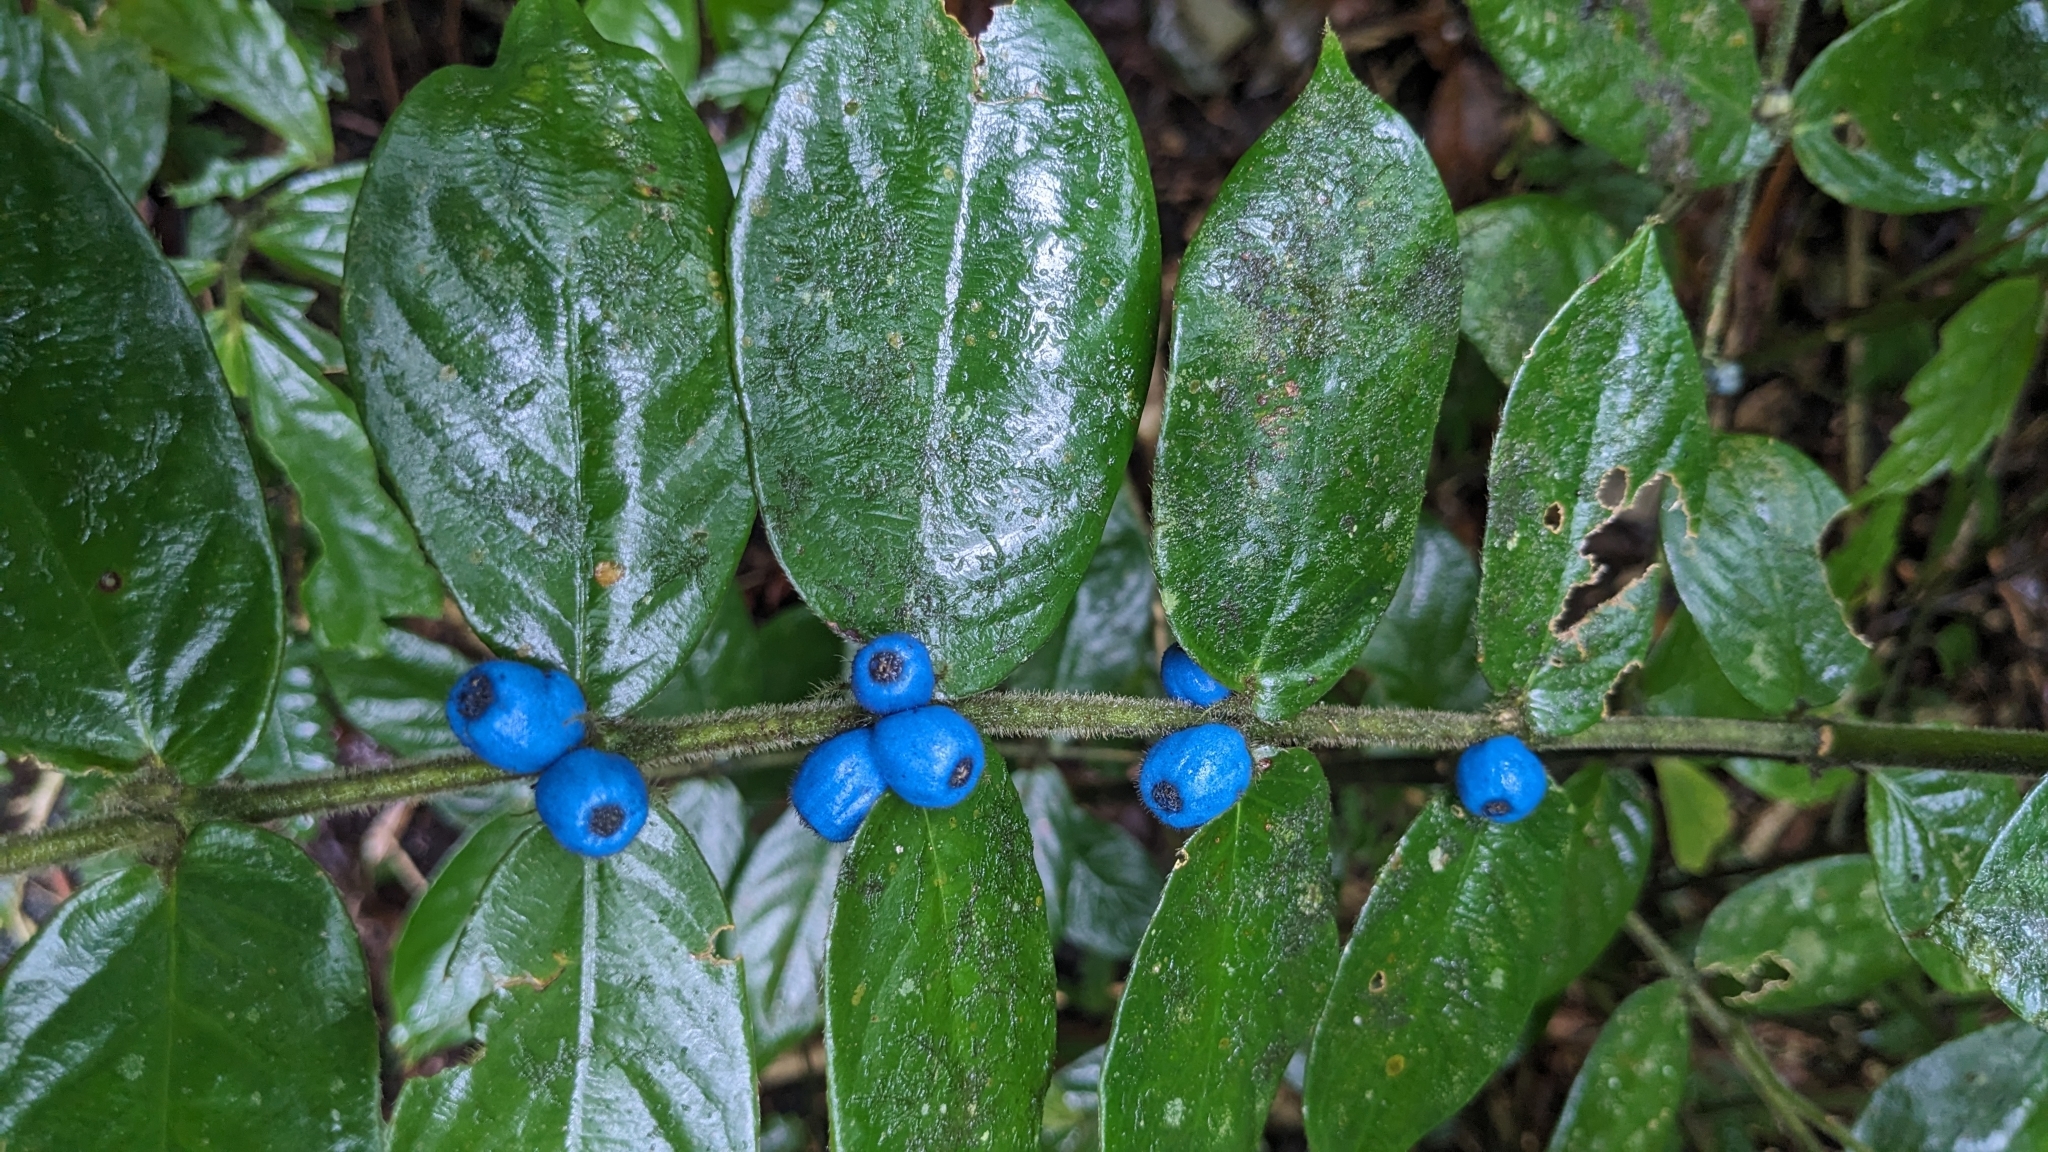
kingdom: Plantae
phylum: Tracheophyta
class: Magnoliopsida
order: Gentianales
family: Rubiaceae
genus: Lasianthus
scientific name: Lasianthus attenuatus
